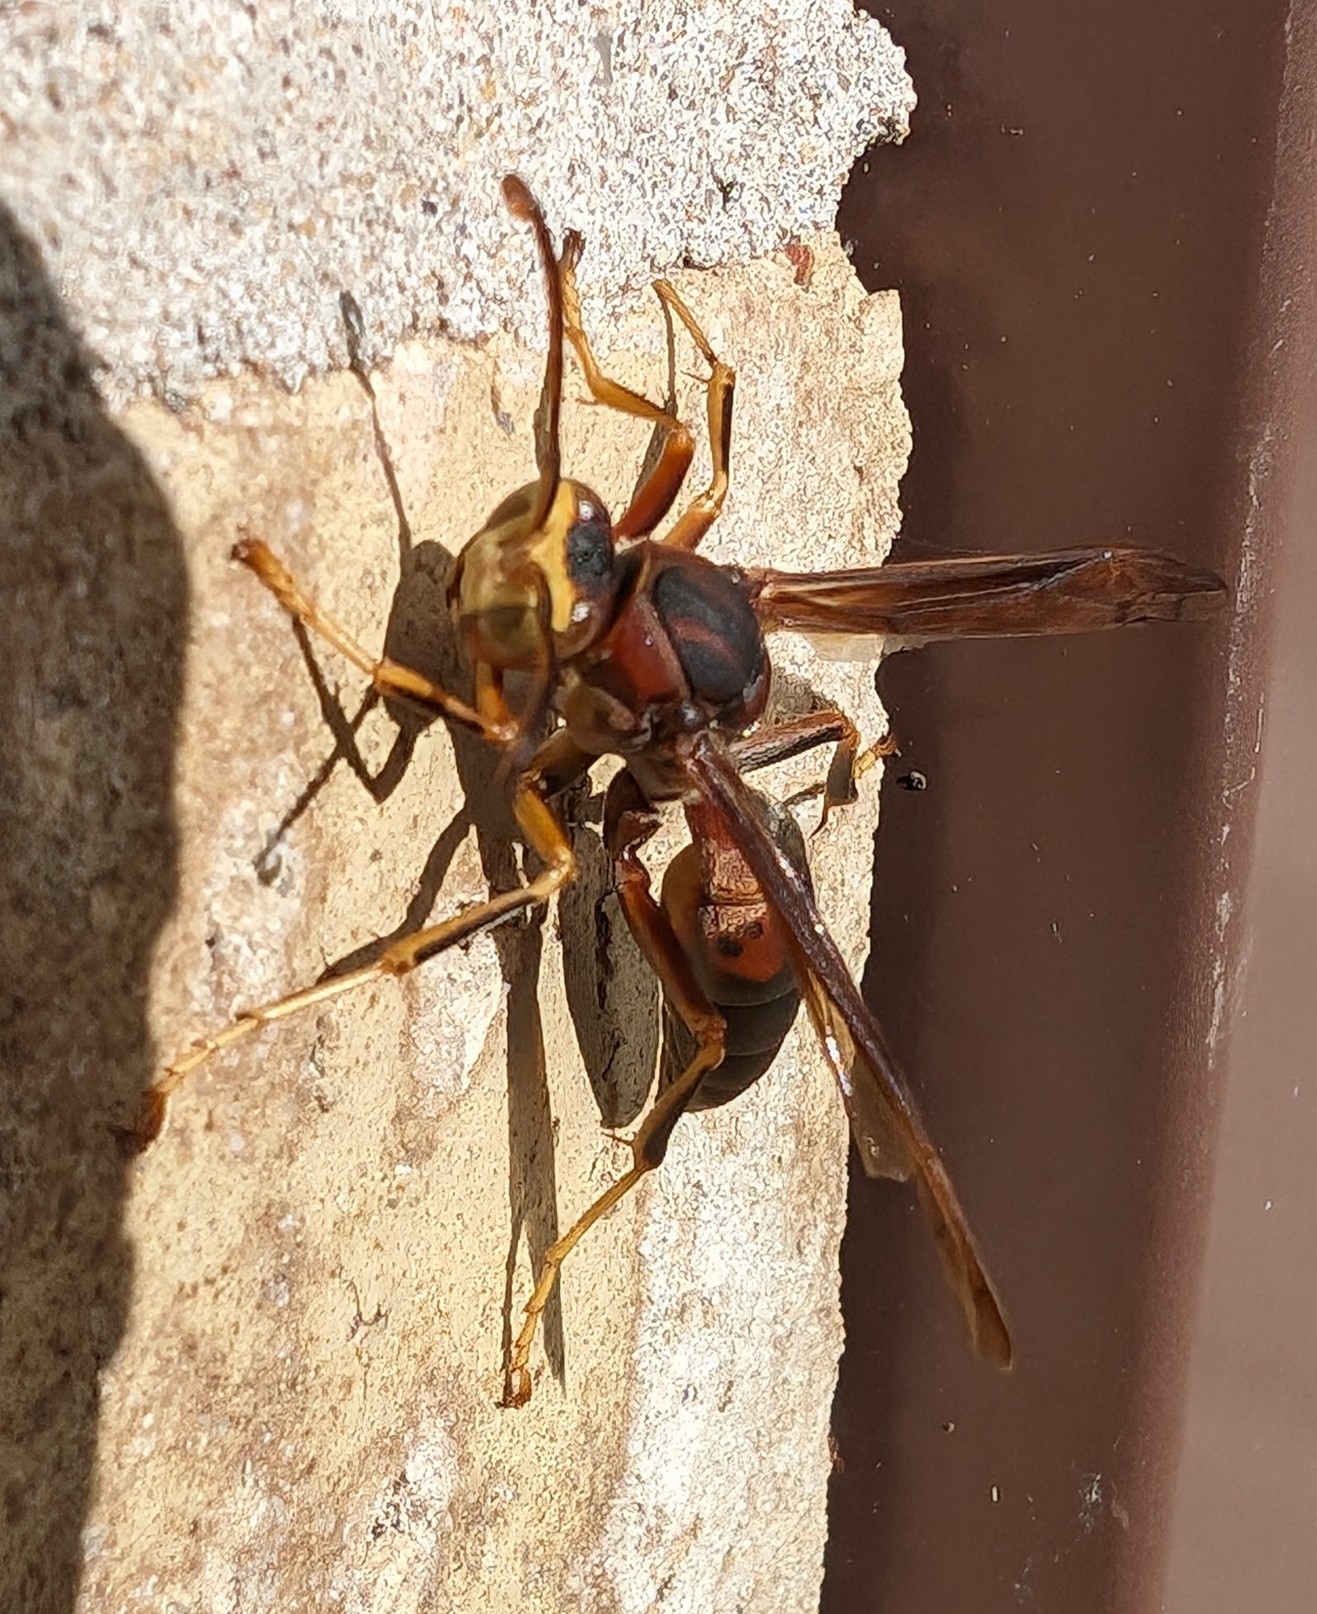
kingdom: Animalia
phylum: Arthropoda
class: Insecta
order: Hymenoptera
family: Eumenidae
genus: Polistes
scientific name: Polistes metricus
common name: Metric paper wasp
